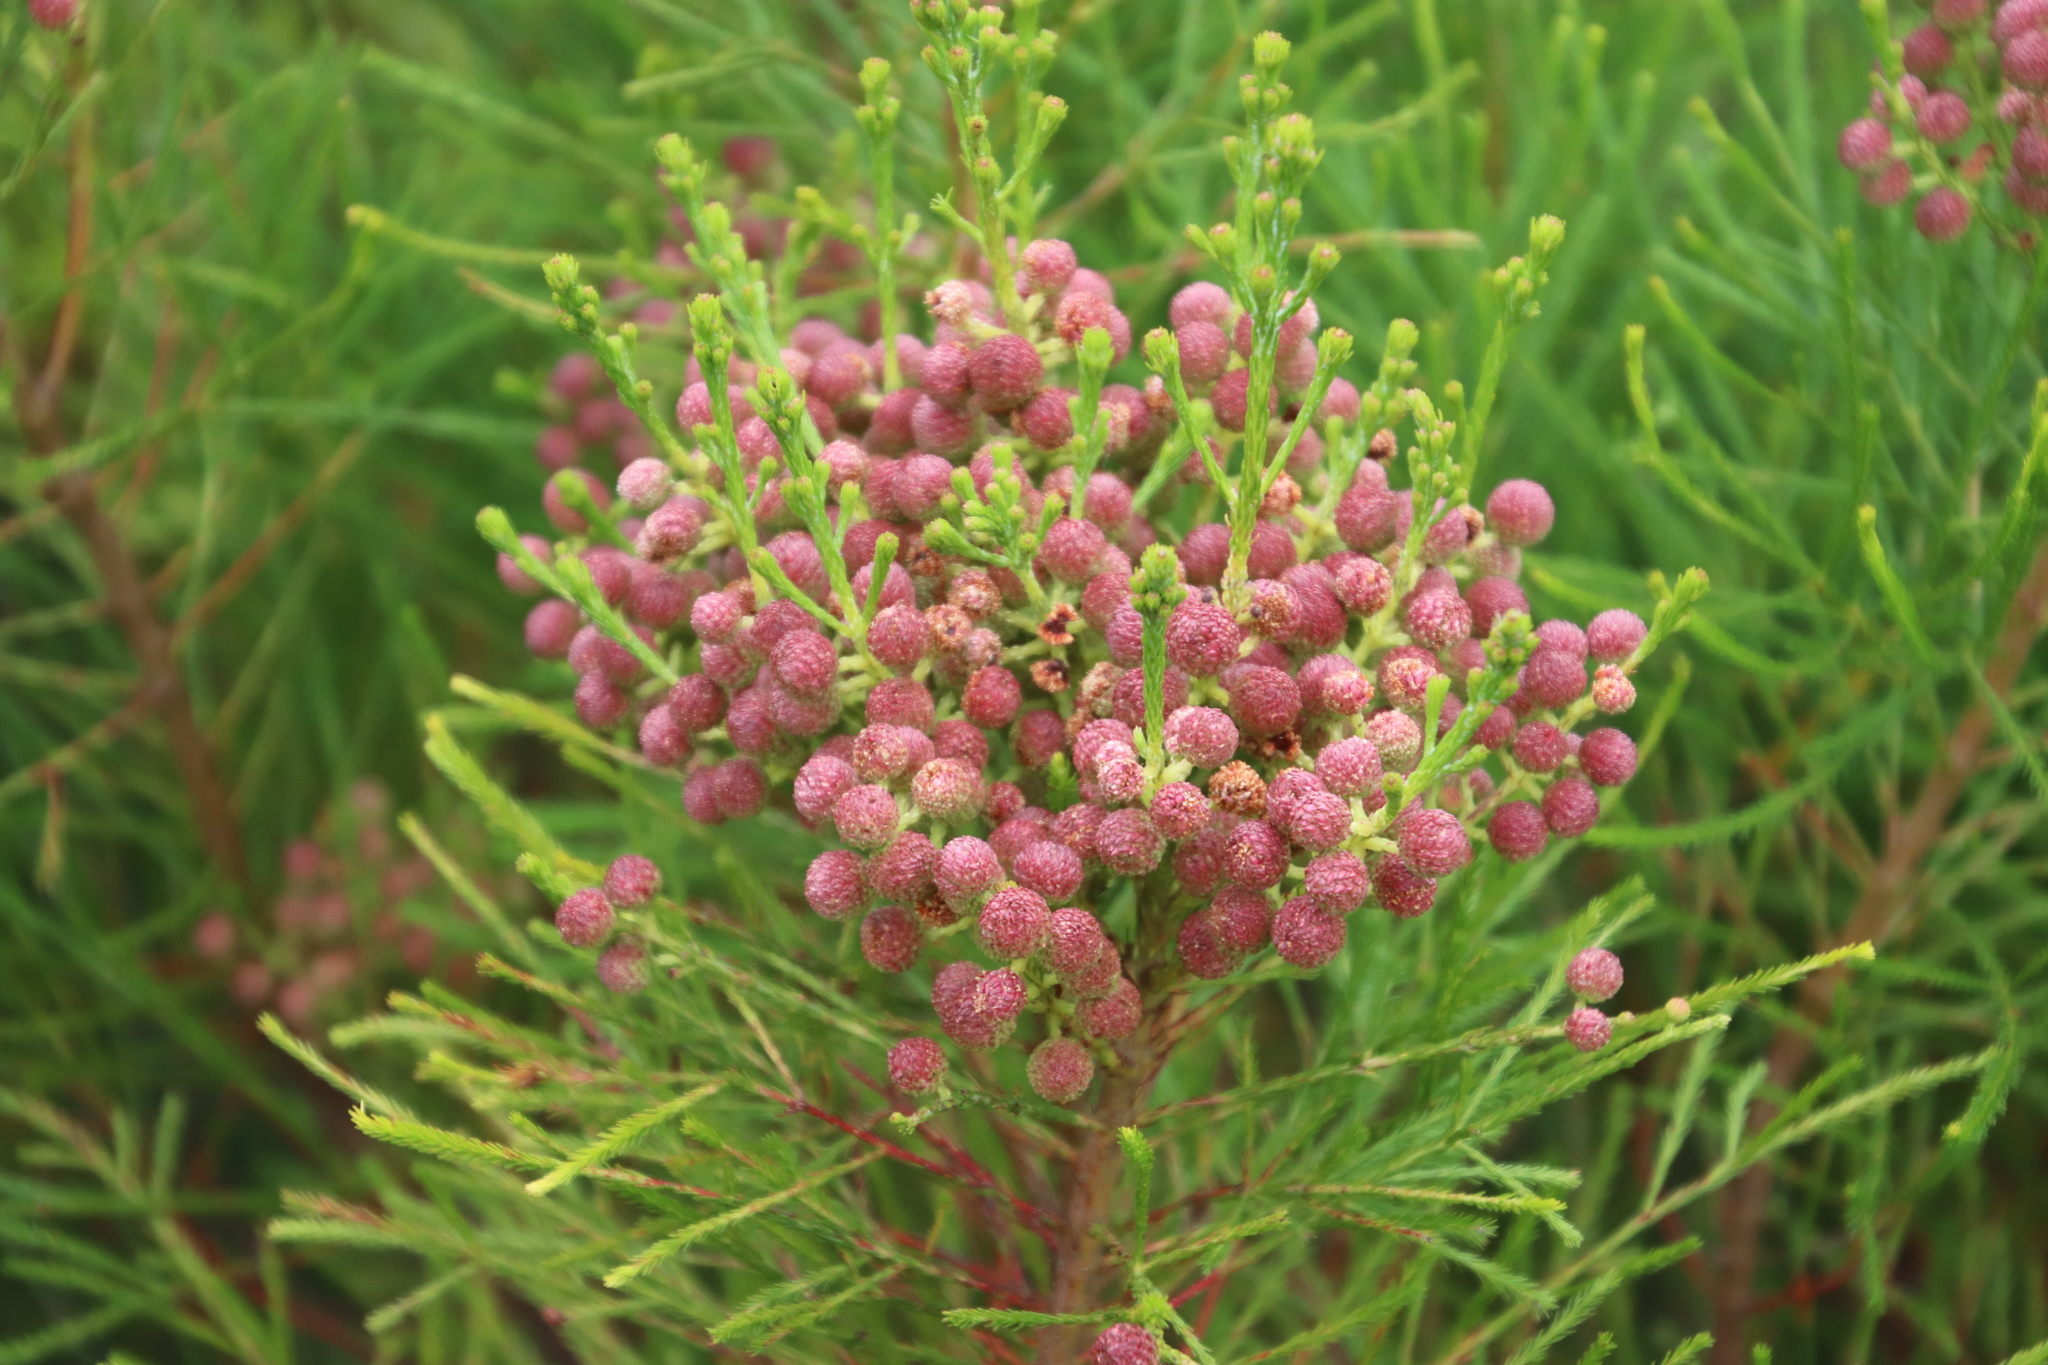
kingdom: Plantae
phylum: Tracheophyta
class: Magnoliopsida
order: Bruniales
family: Bruniaceae
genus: Berzelia
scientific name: Berzelia lanuginosa
